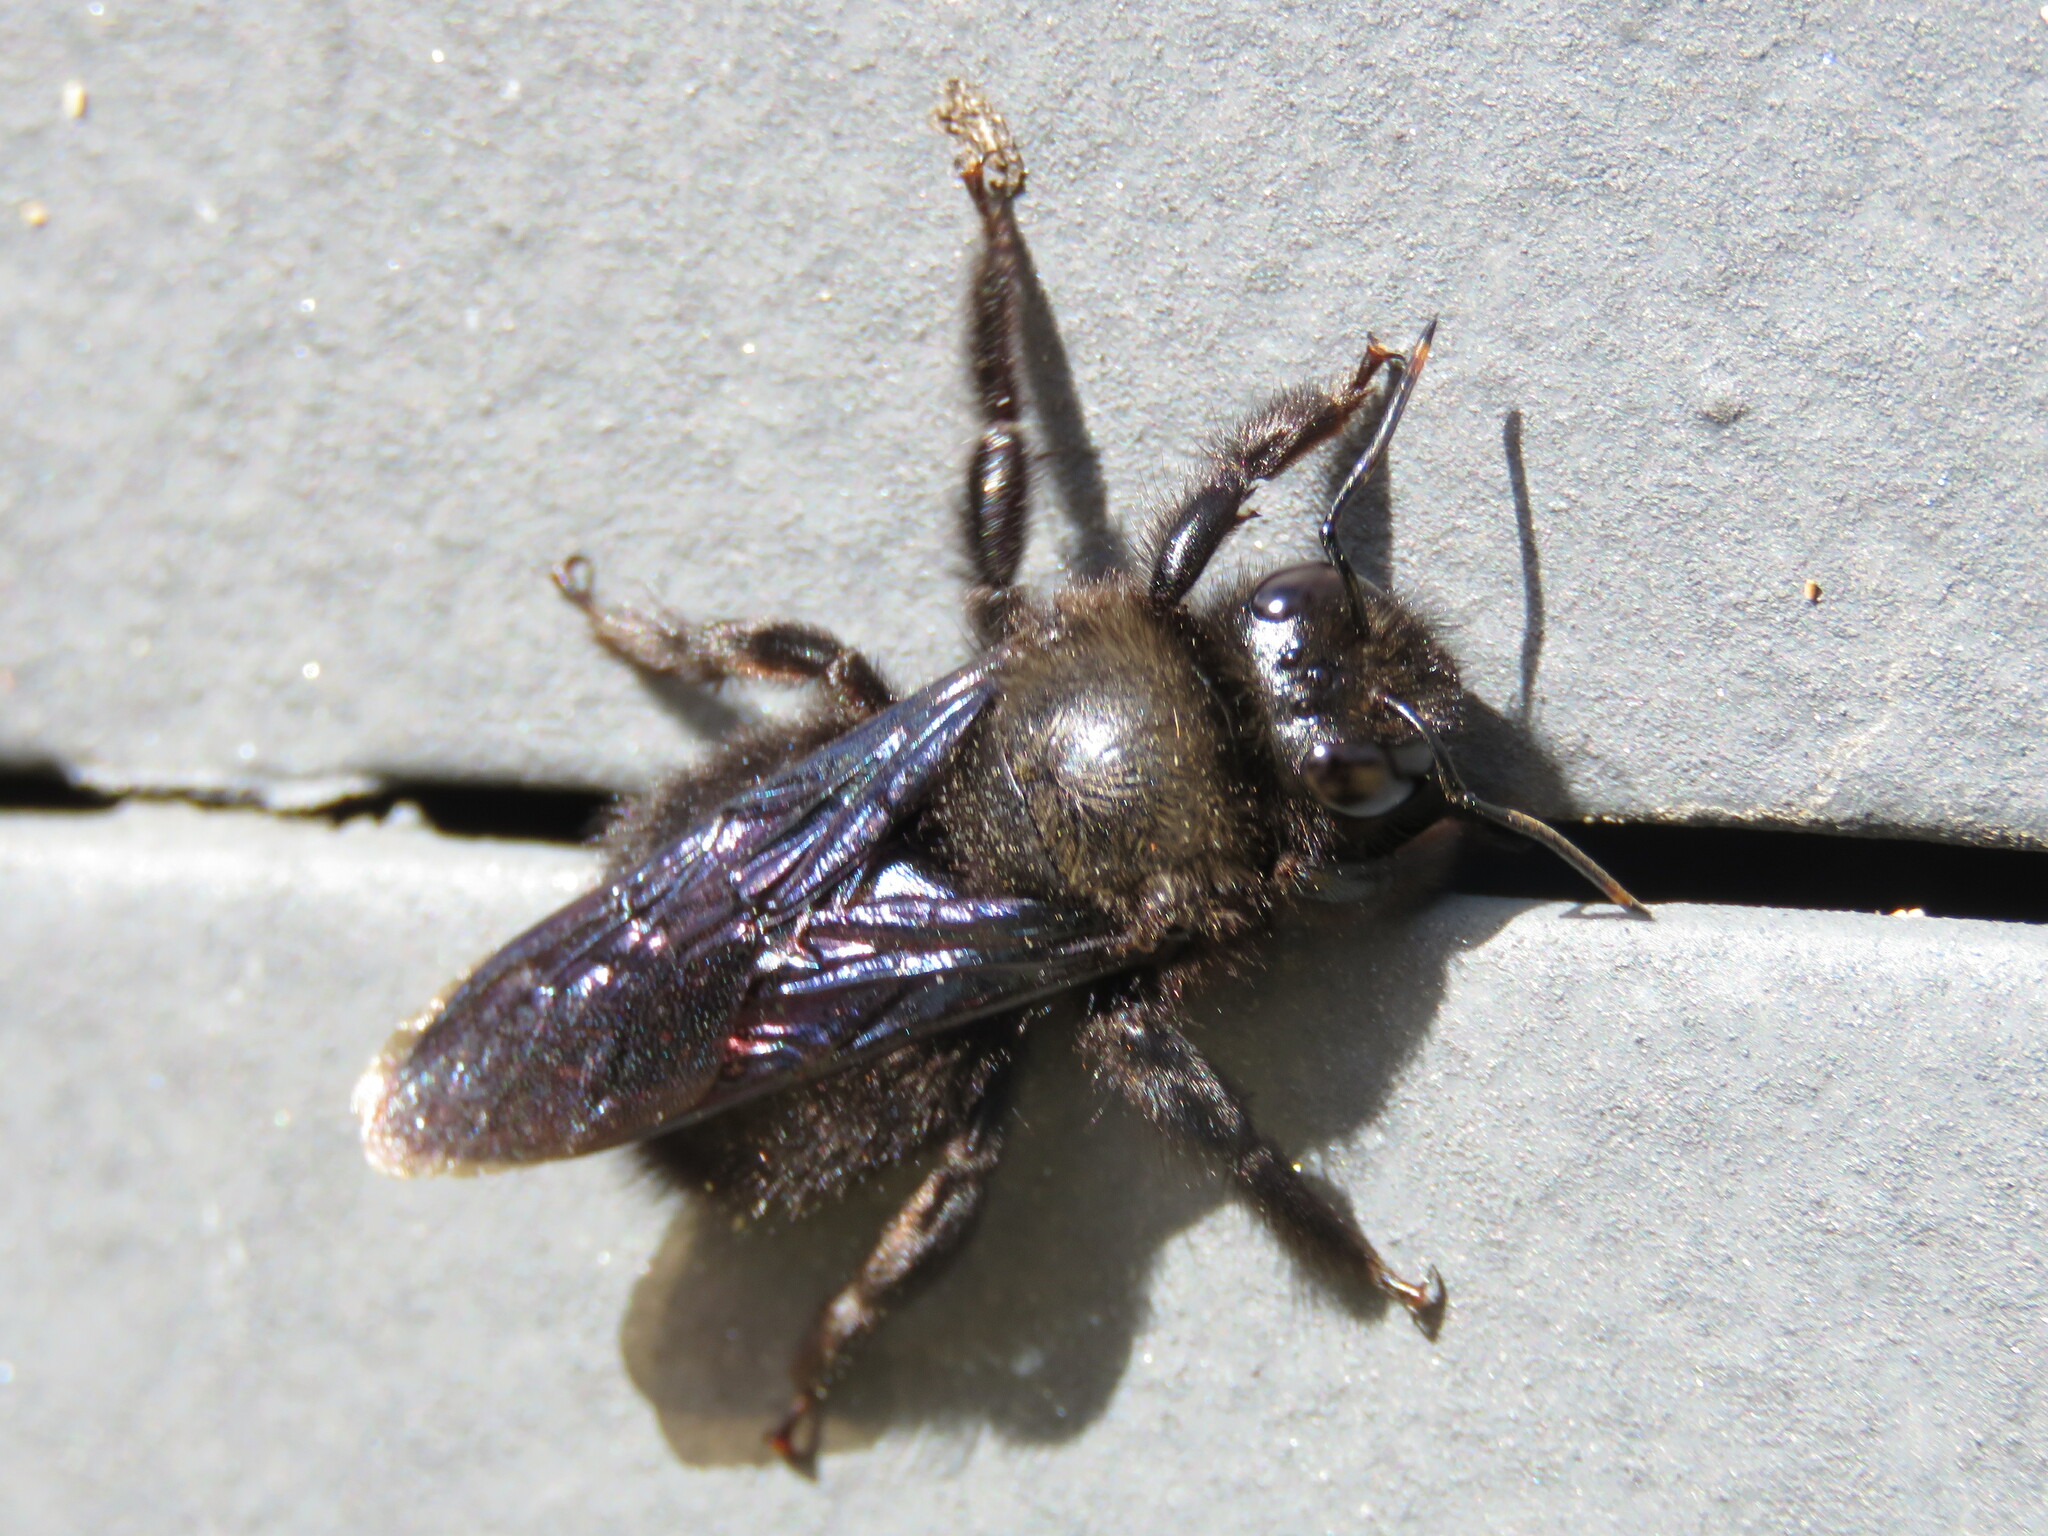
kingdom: Animalia
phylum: Arthropoda
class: Insecta
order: Hymenoptera
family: Apidae
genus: Xylocopa
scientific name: Xylocopa violacea
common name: Violet carpenter bee
